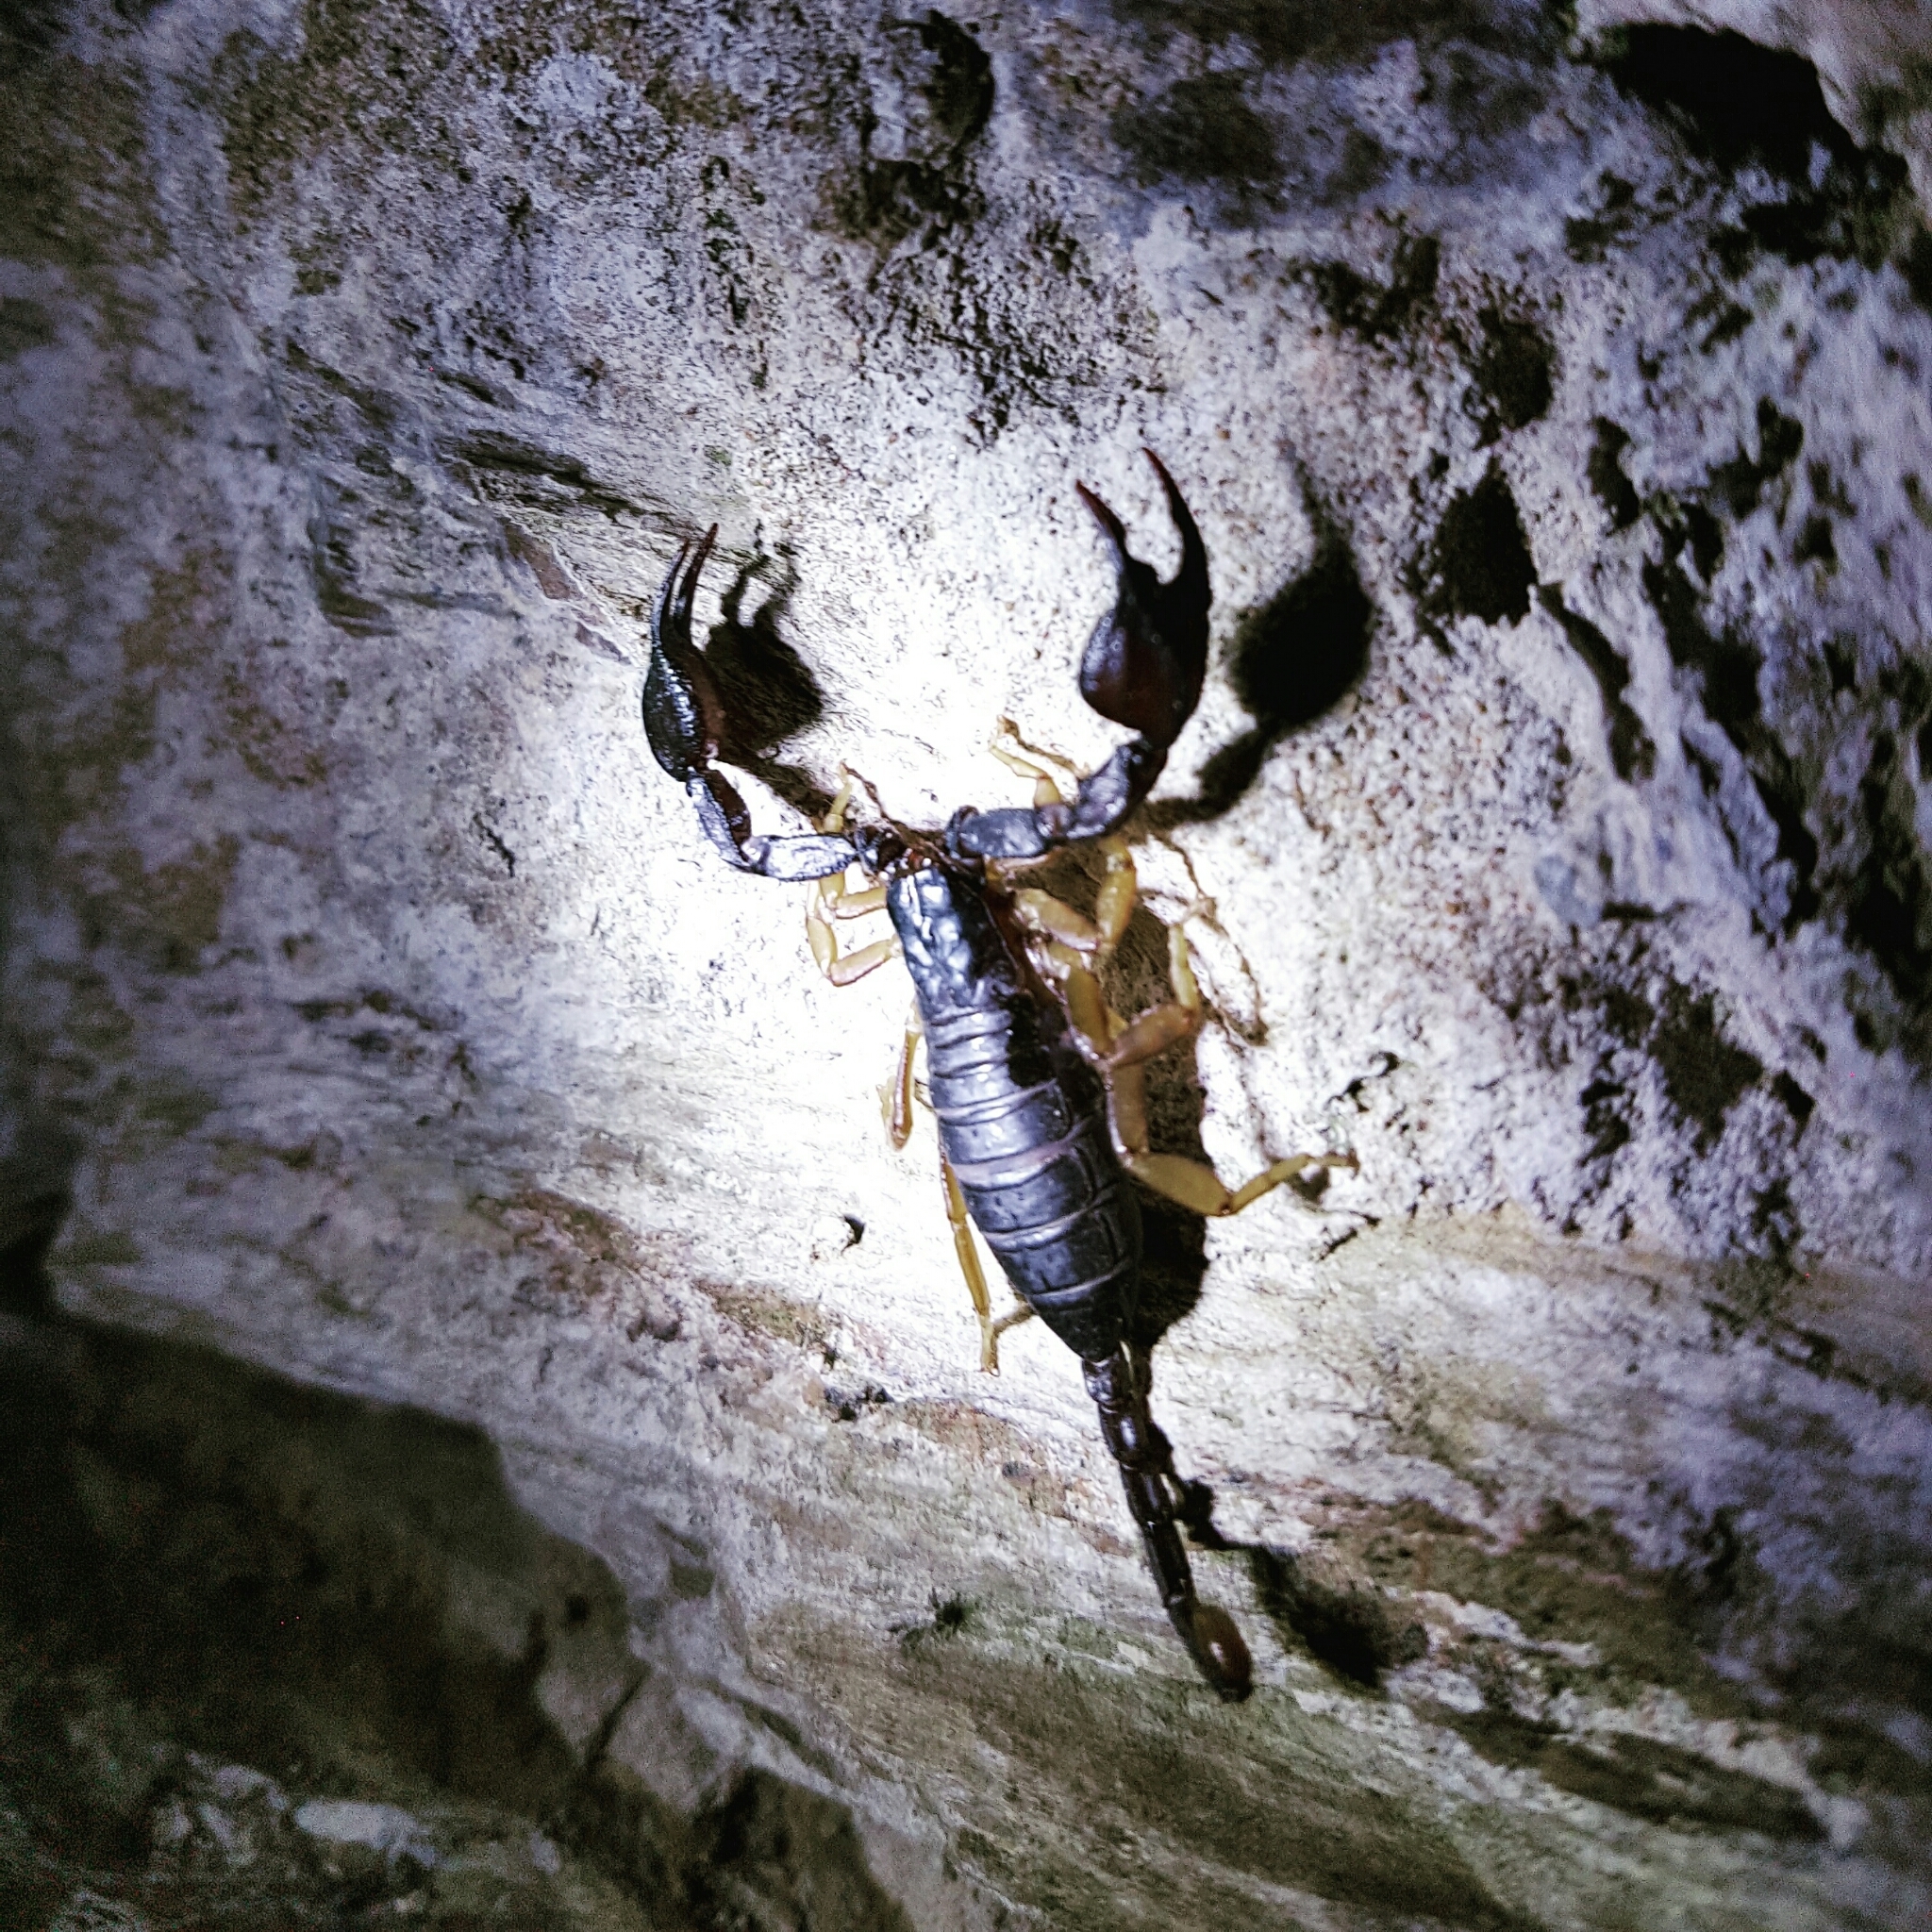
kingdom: Animalia
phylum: Arthropoda
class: Arachnida
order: Scorpiones
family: Euscorpiidae
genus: Euscorpius
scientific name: Euscorpius flavicaudis
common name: European yellow-tailed scorpion
